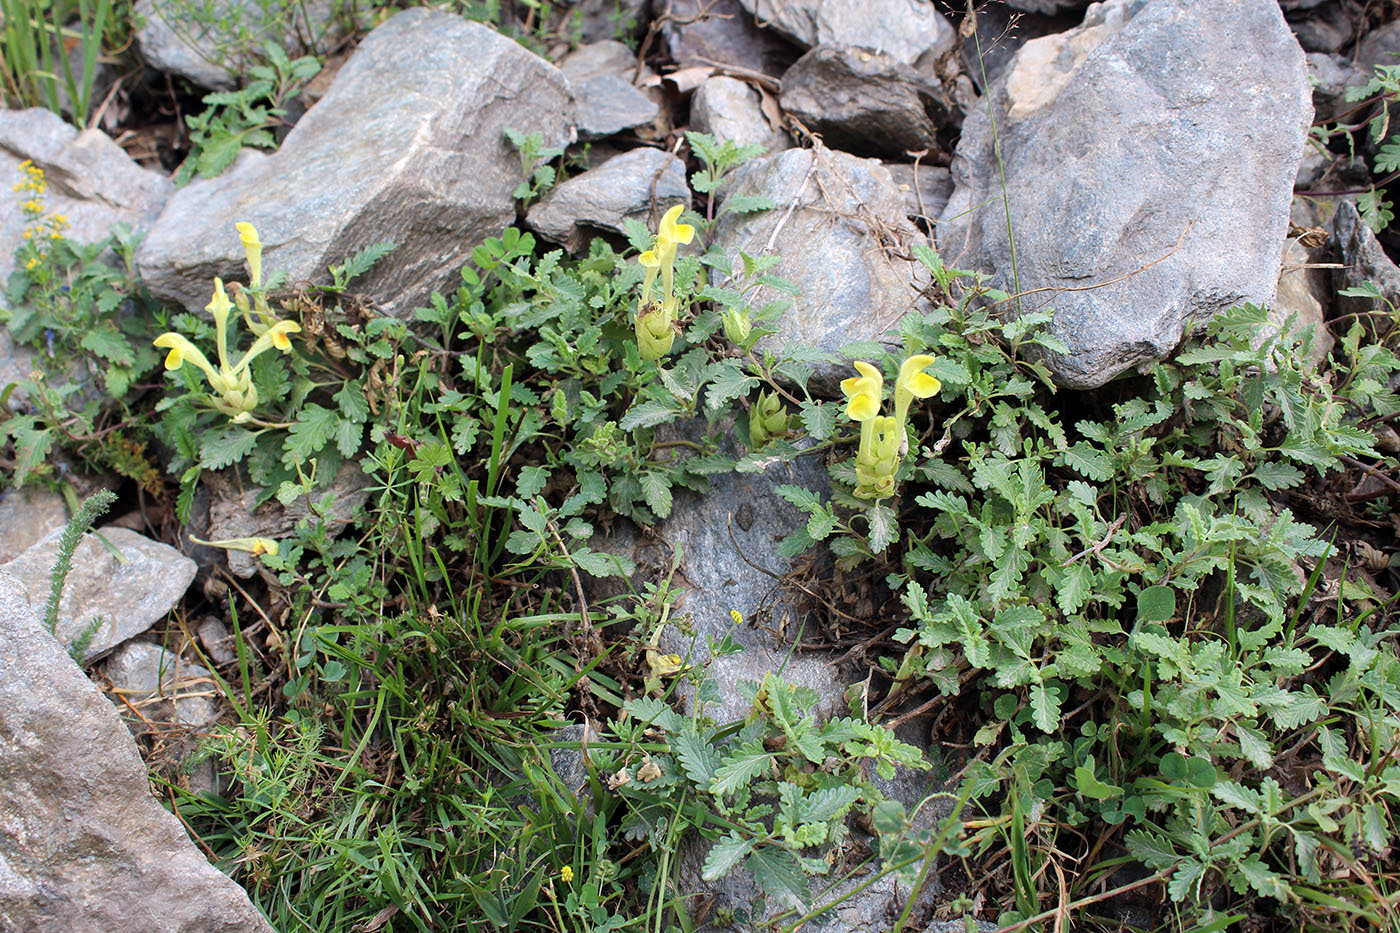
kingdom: Plantae
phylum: Tracheophyta
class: Magnoliopsida
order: Lamiales
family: Lamiaceae
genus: Scutellaria
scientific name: Scutellaria orientalis
